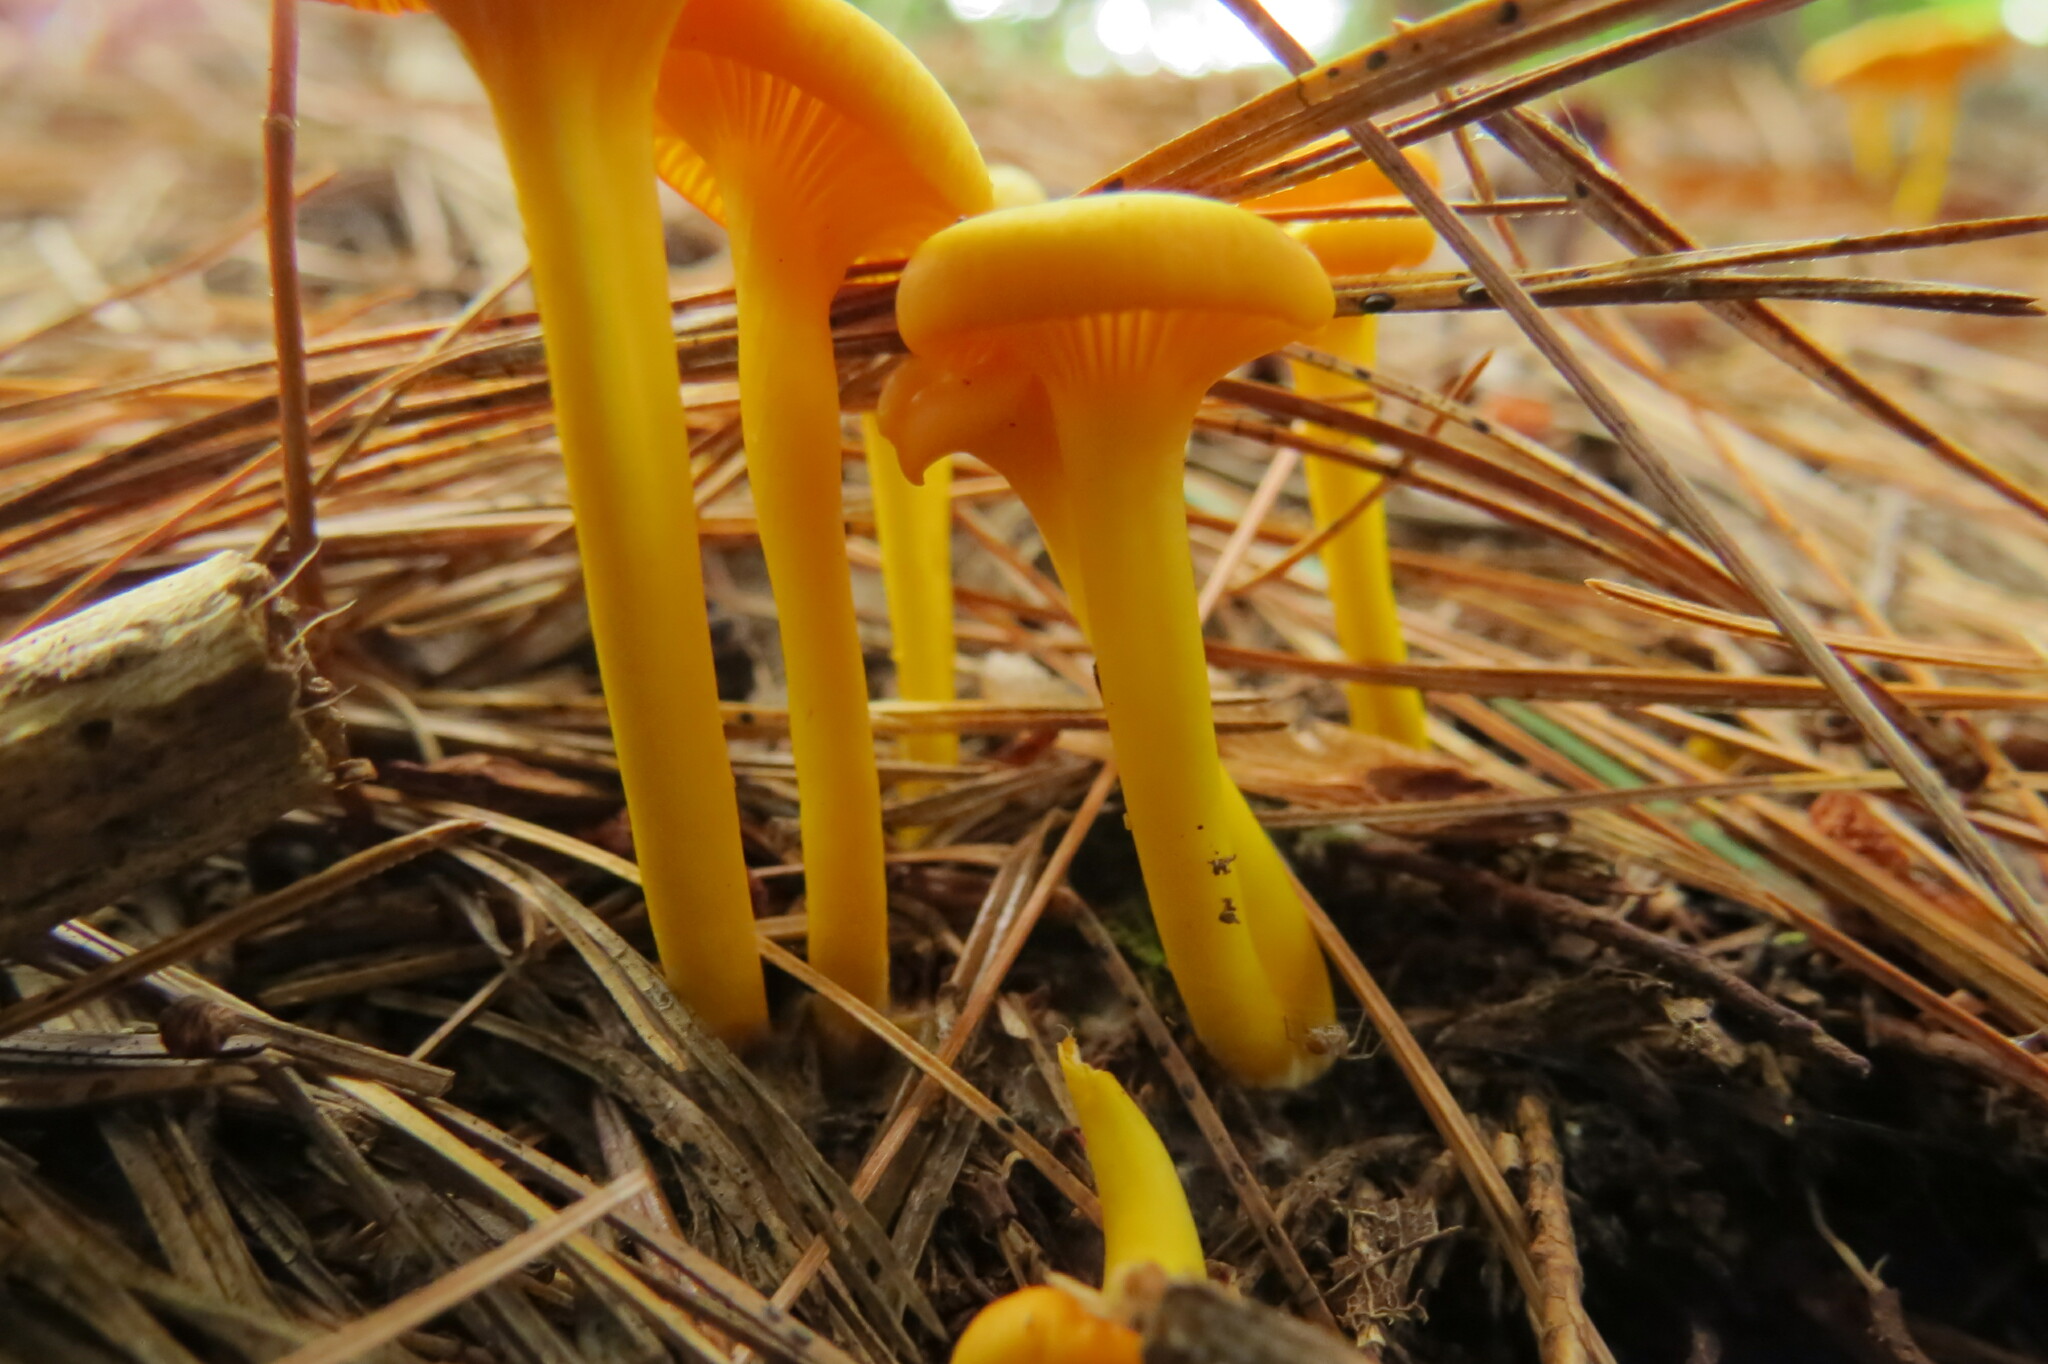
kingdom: Fungi
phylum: Basidiomycota
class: Agaricomycetes
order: Agaricales
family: Hygrophoraceae
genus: Gloioxanthomyces
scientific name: Gloioxanthomyces nitidus
